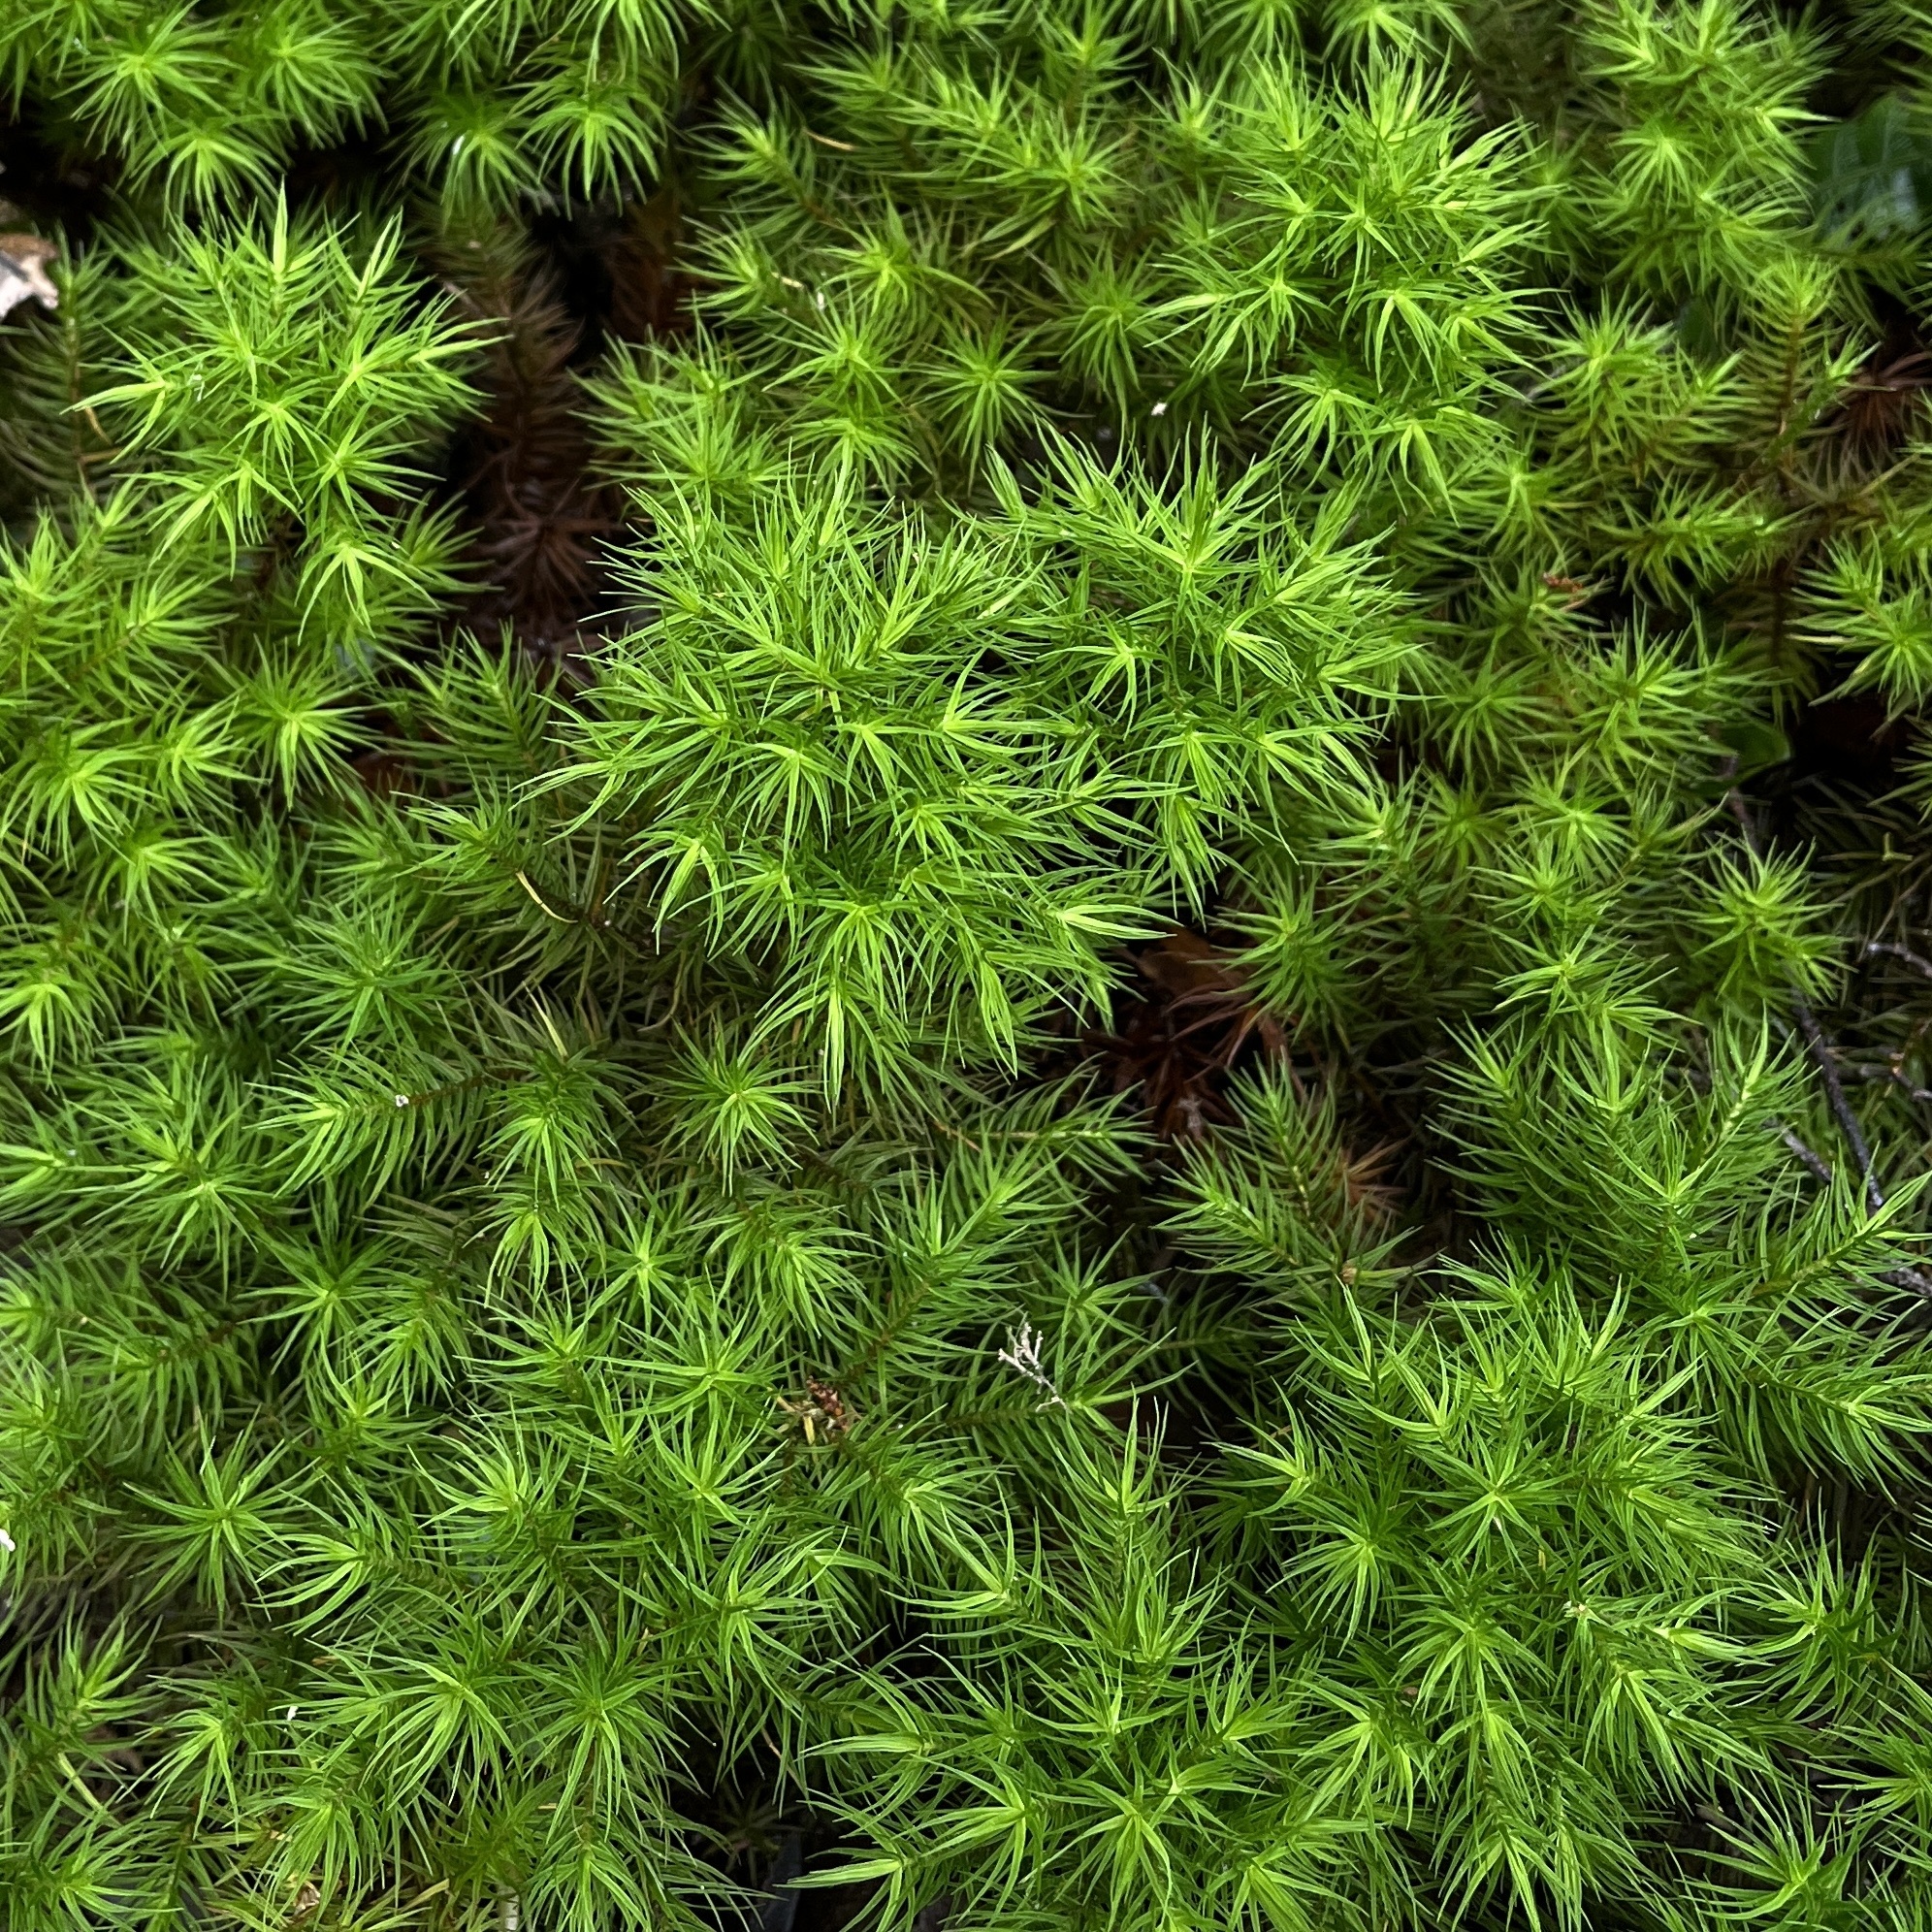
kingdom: Plantae
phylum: Bryophyta
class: Polytrichopsida
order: Polytrichales
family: Polytrichaceae
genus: Dendroligotrichum
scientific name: Dendroligotrichum dendroides
